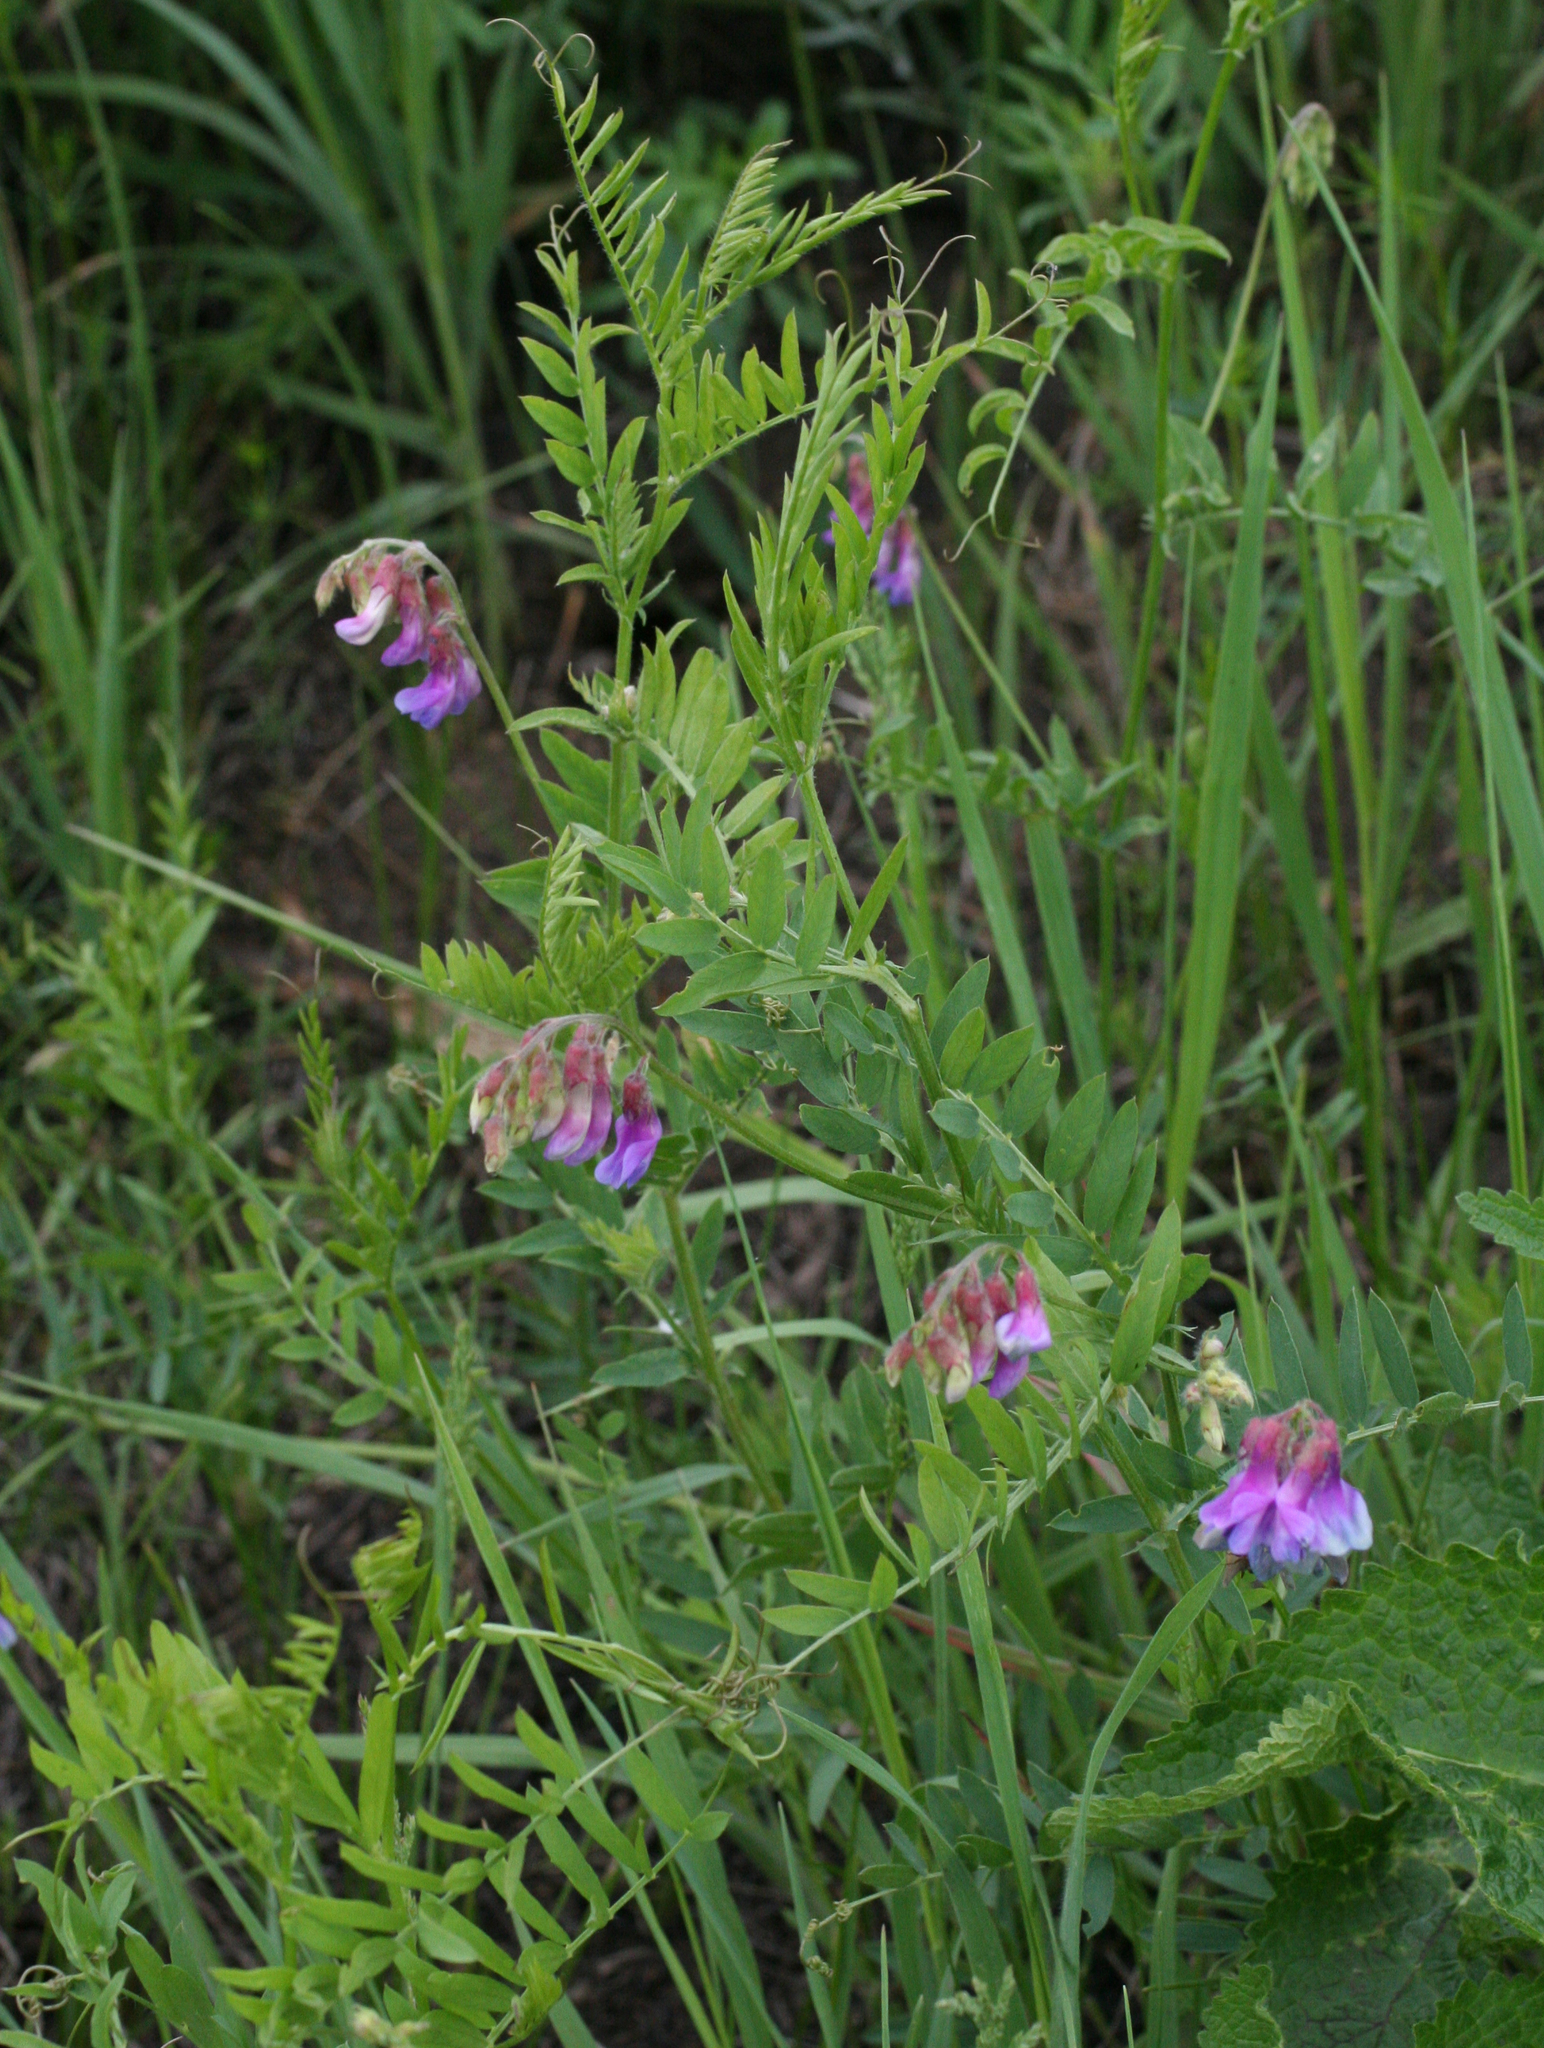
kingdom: Plantae
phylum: Tracheophyta
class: Magnoliopsida
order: Fabales
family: Fabaceae
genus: Vicia
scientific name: Vicia multicaulis
